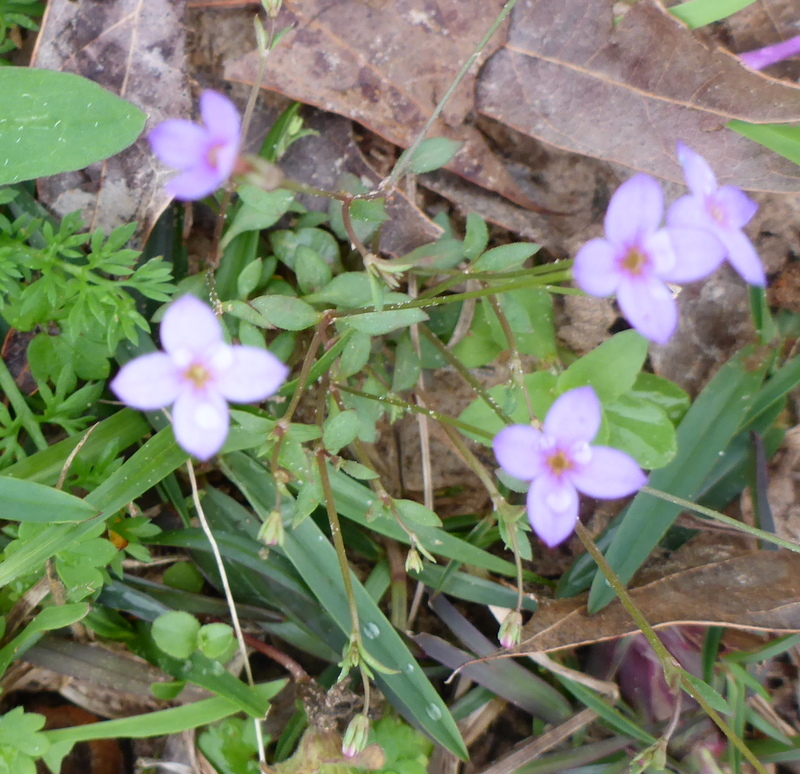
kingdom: Plantae
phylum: Tracheophyta
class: Magnoliopsida
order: Gentianales
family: Rubiaceae
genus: Houstonia
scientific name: Houstonia pusilla
